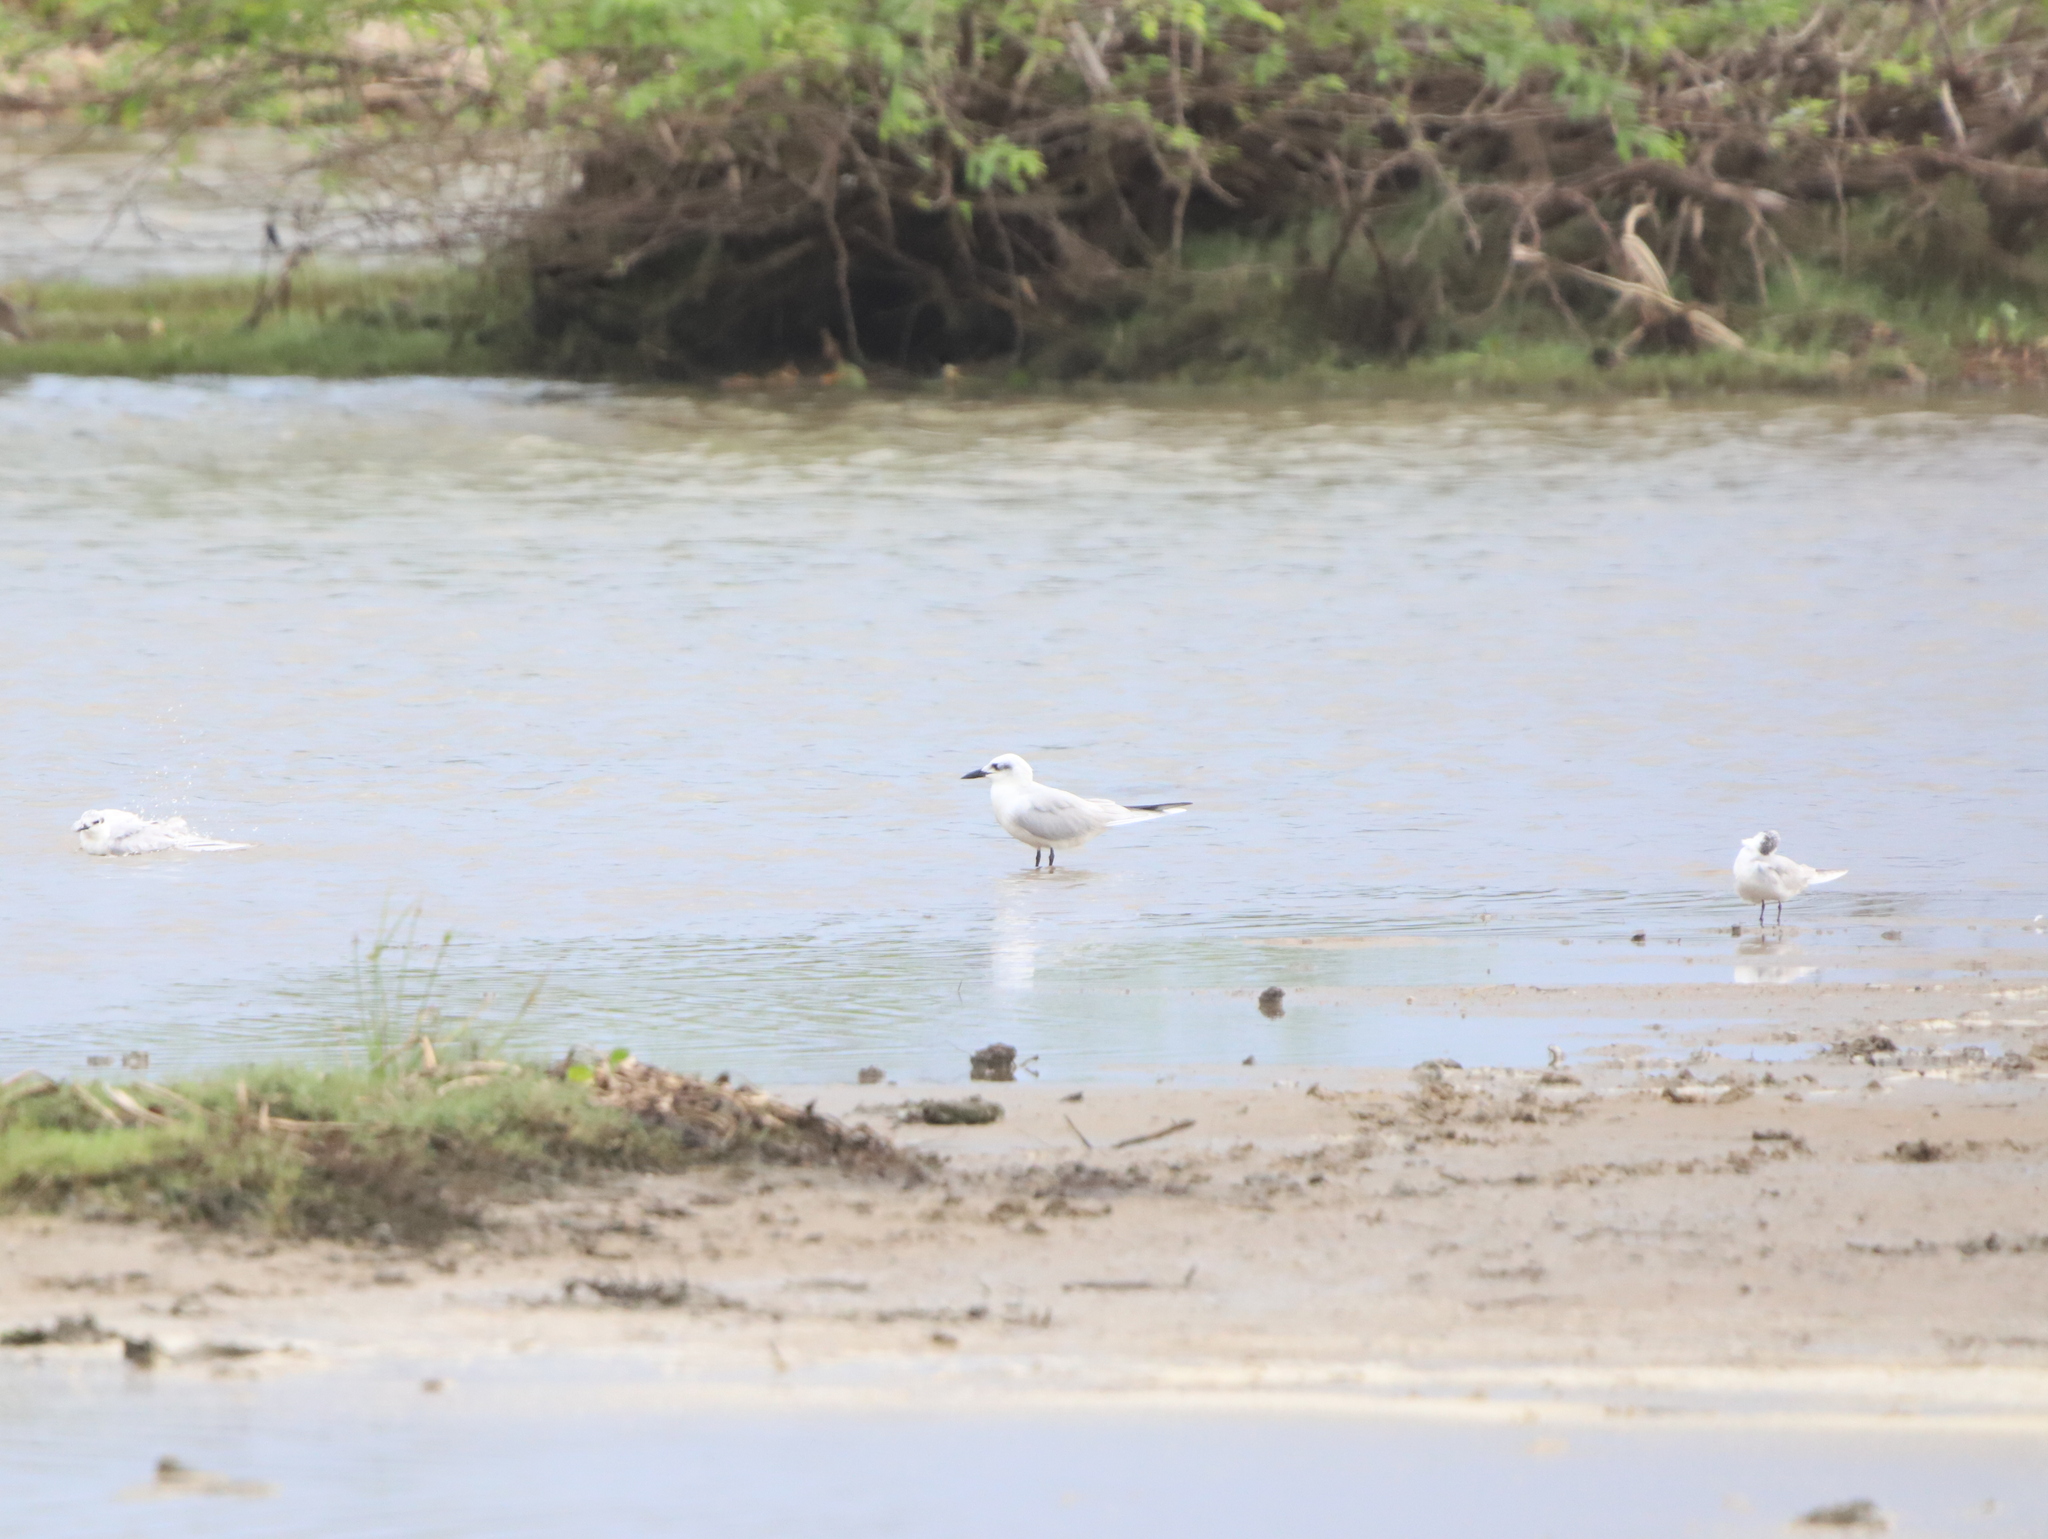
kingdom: Animalia
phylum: Chordata
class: Aves
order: Charadriiformes
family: Laridae
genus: Gelochelidon
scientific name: Gelochelidon nilotica
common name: Gull-billed tern
